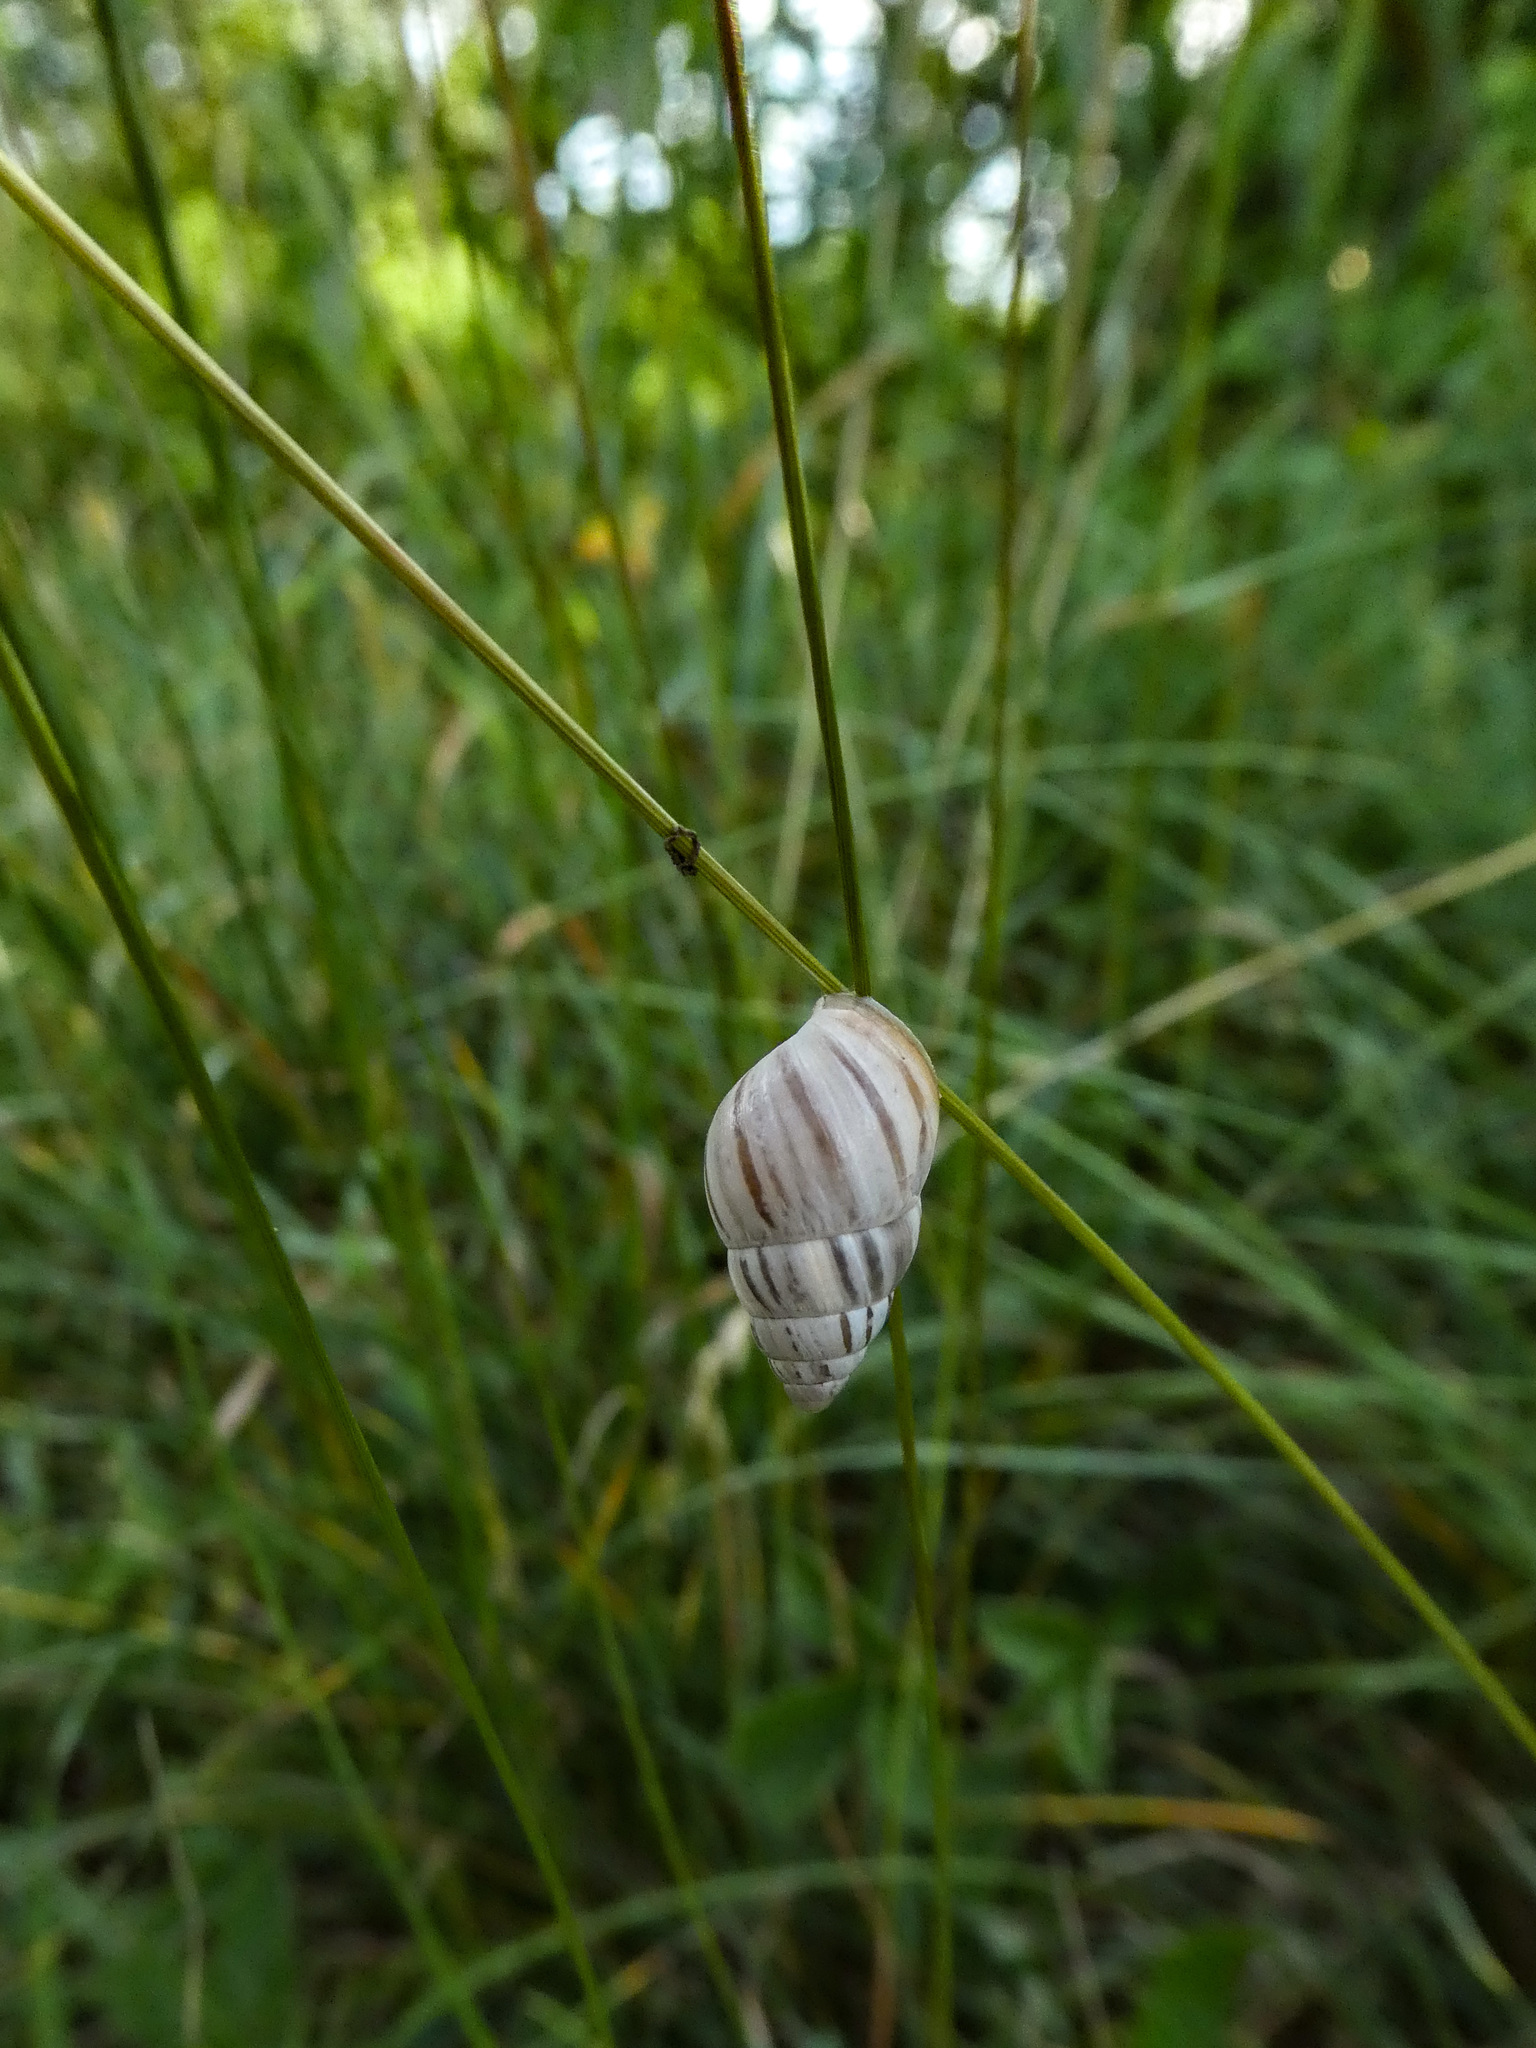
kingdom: Animalia
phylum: Mollusca
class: Gastropoda
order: Stylommatophora
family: Enidae
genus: Zebrina
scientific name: Zebrina detrita
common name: Large bulin
